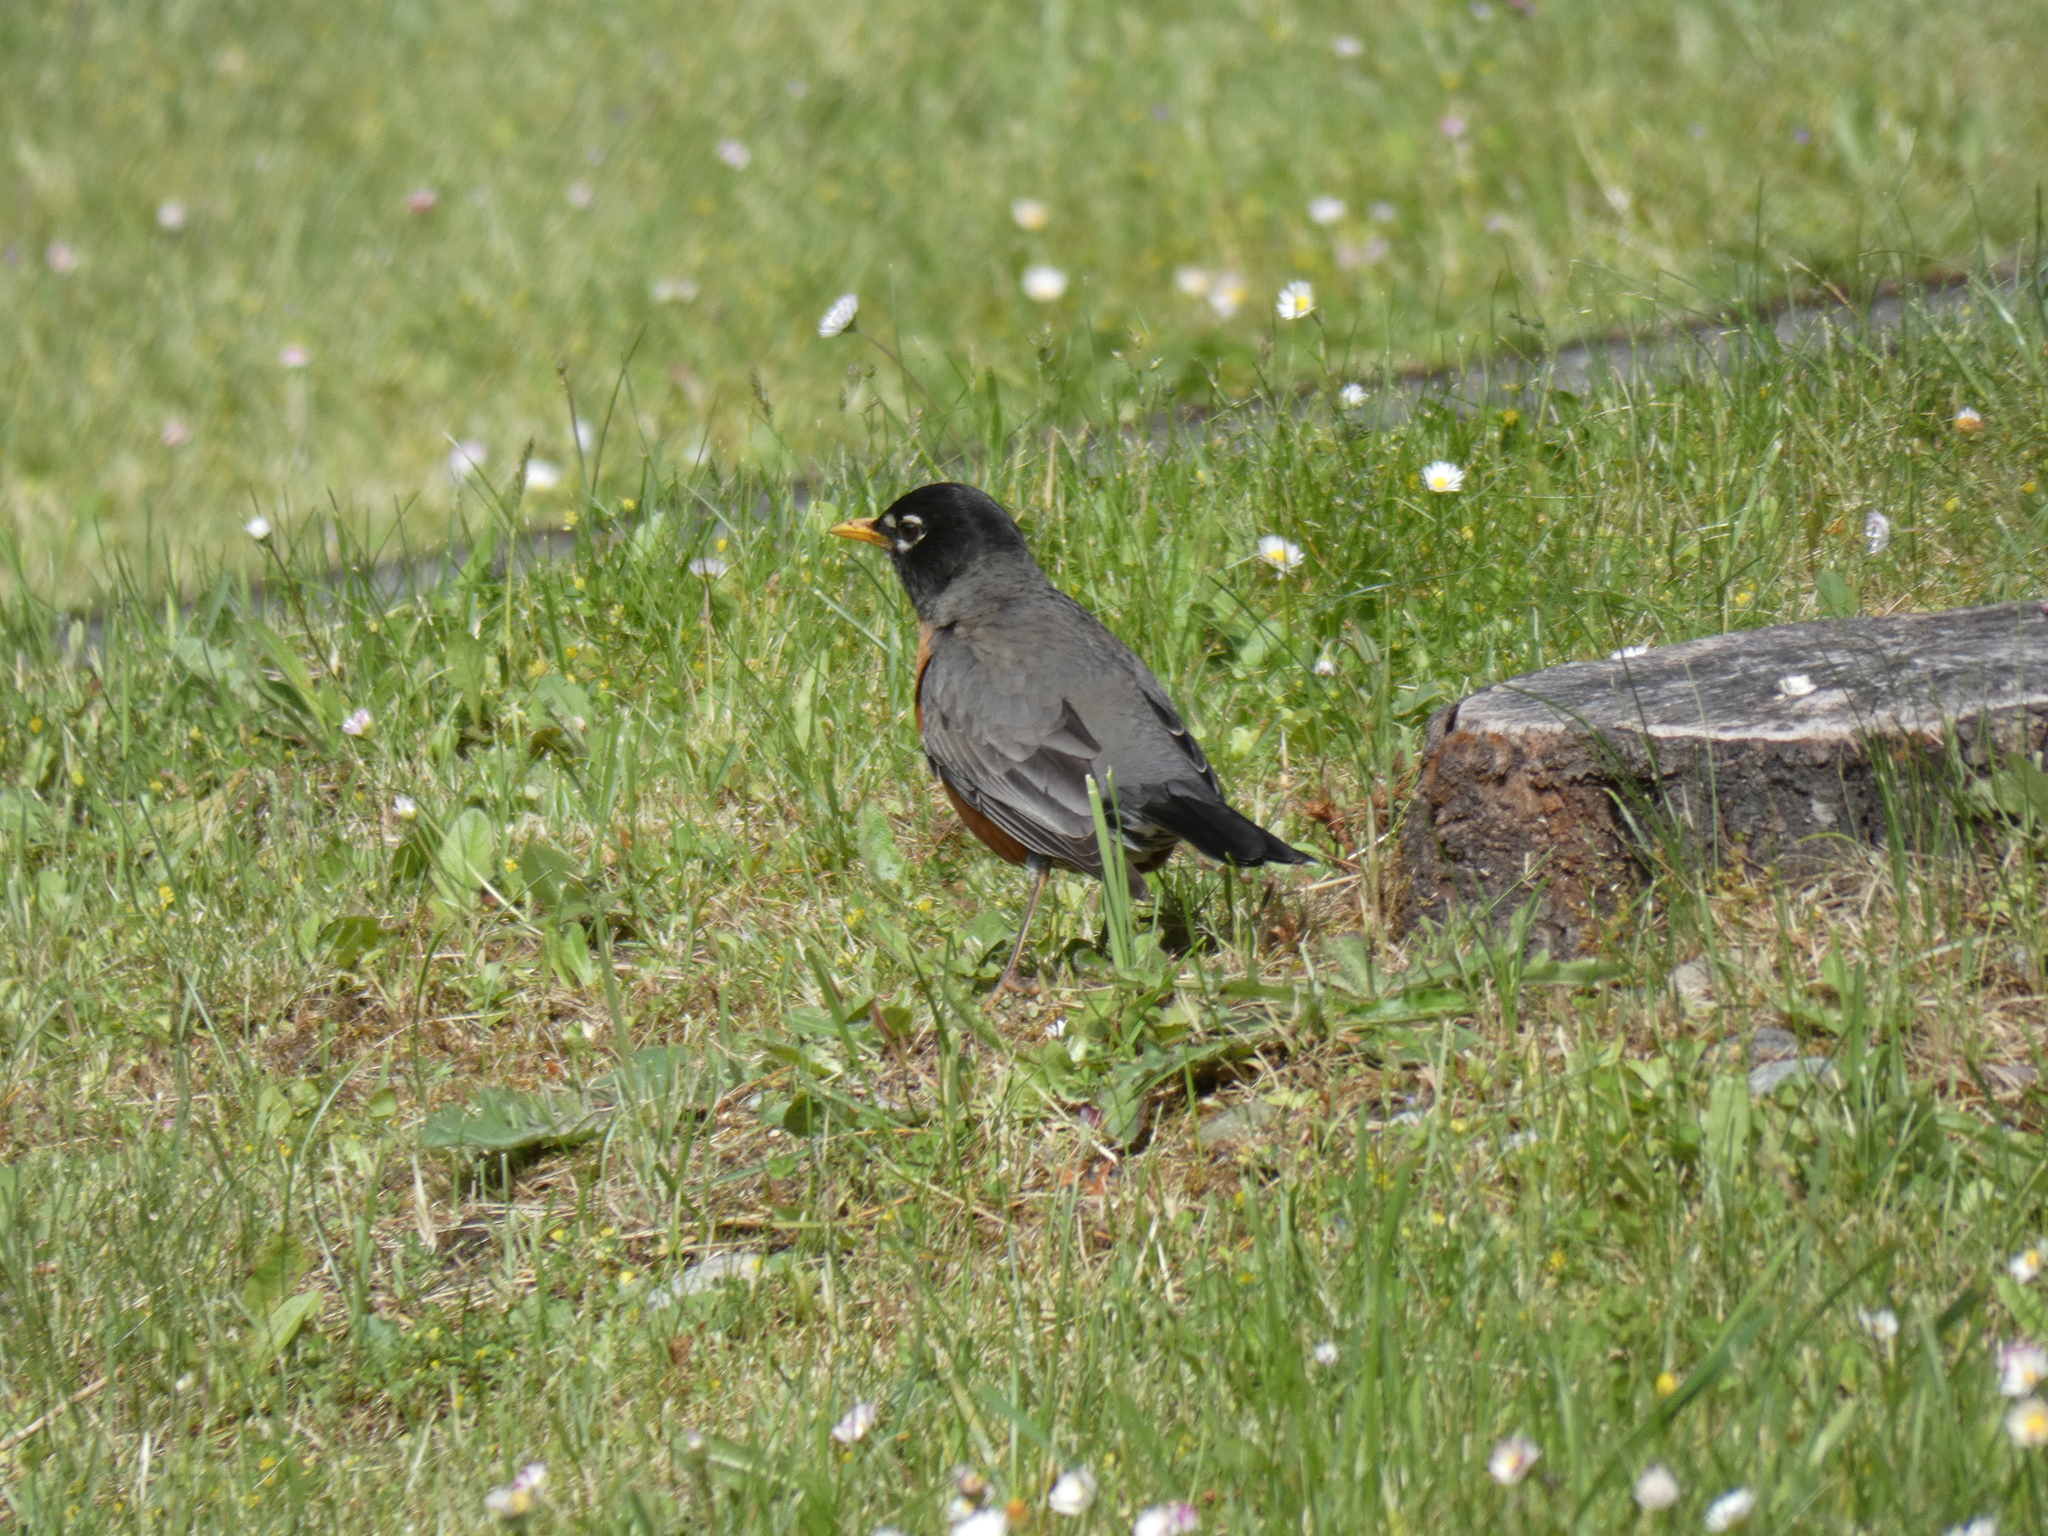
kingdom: Animalia
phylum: Chordata
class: Aves
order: Passeriformes
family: Turdidae
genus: Turdus
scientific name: Turdus migratorius
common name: American robin
